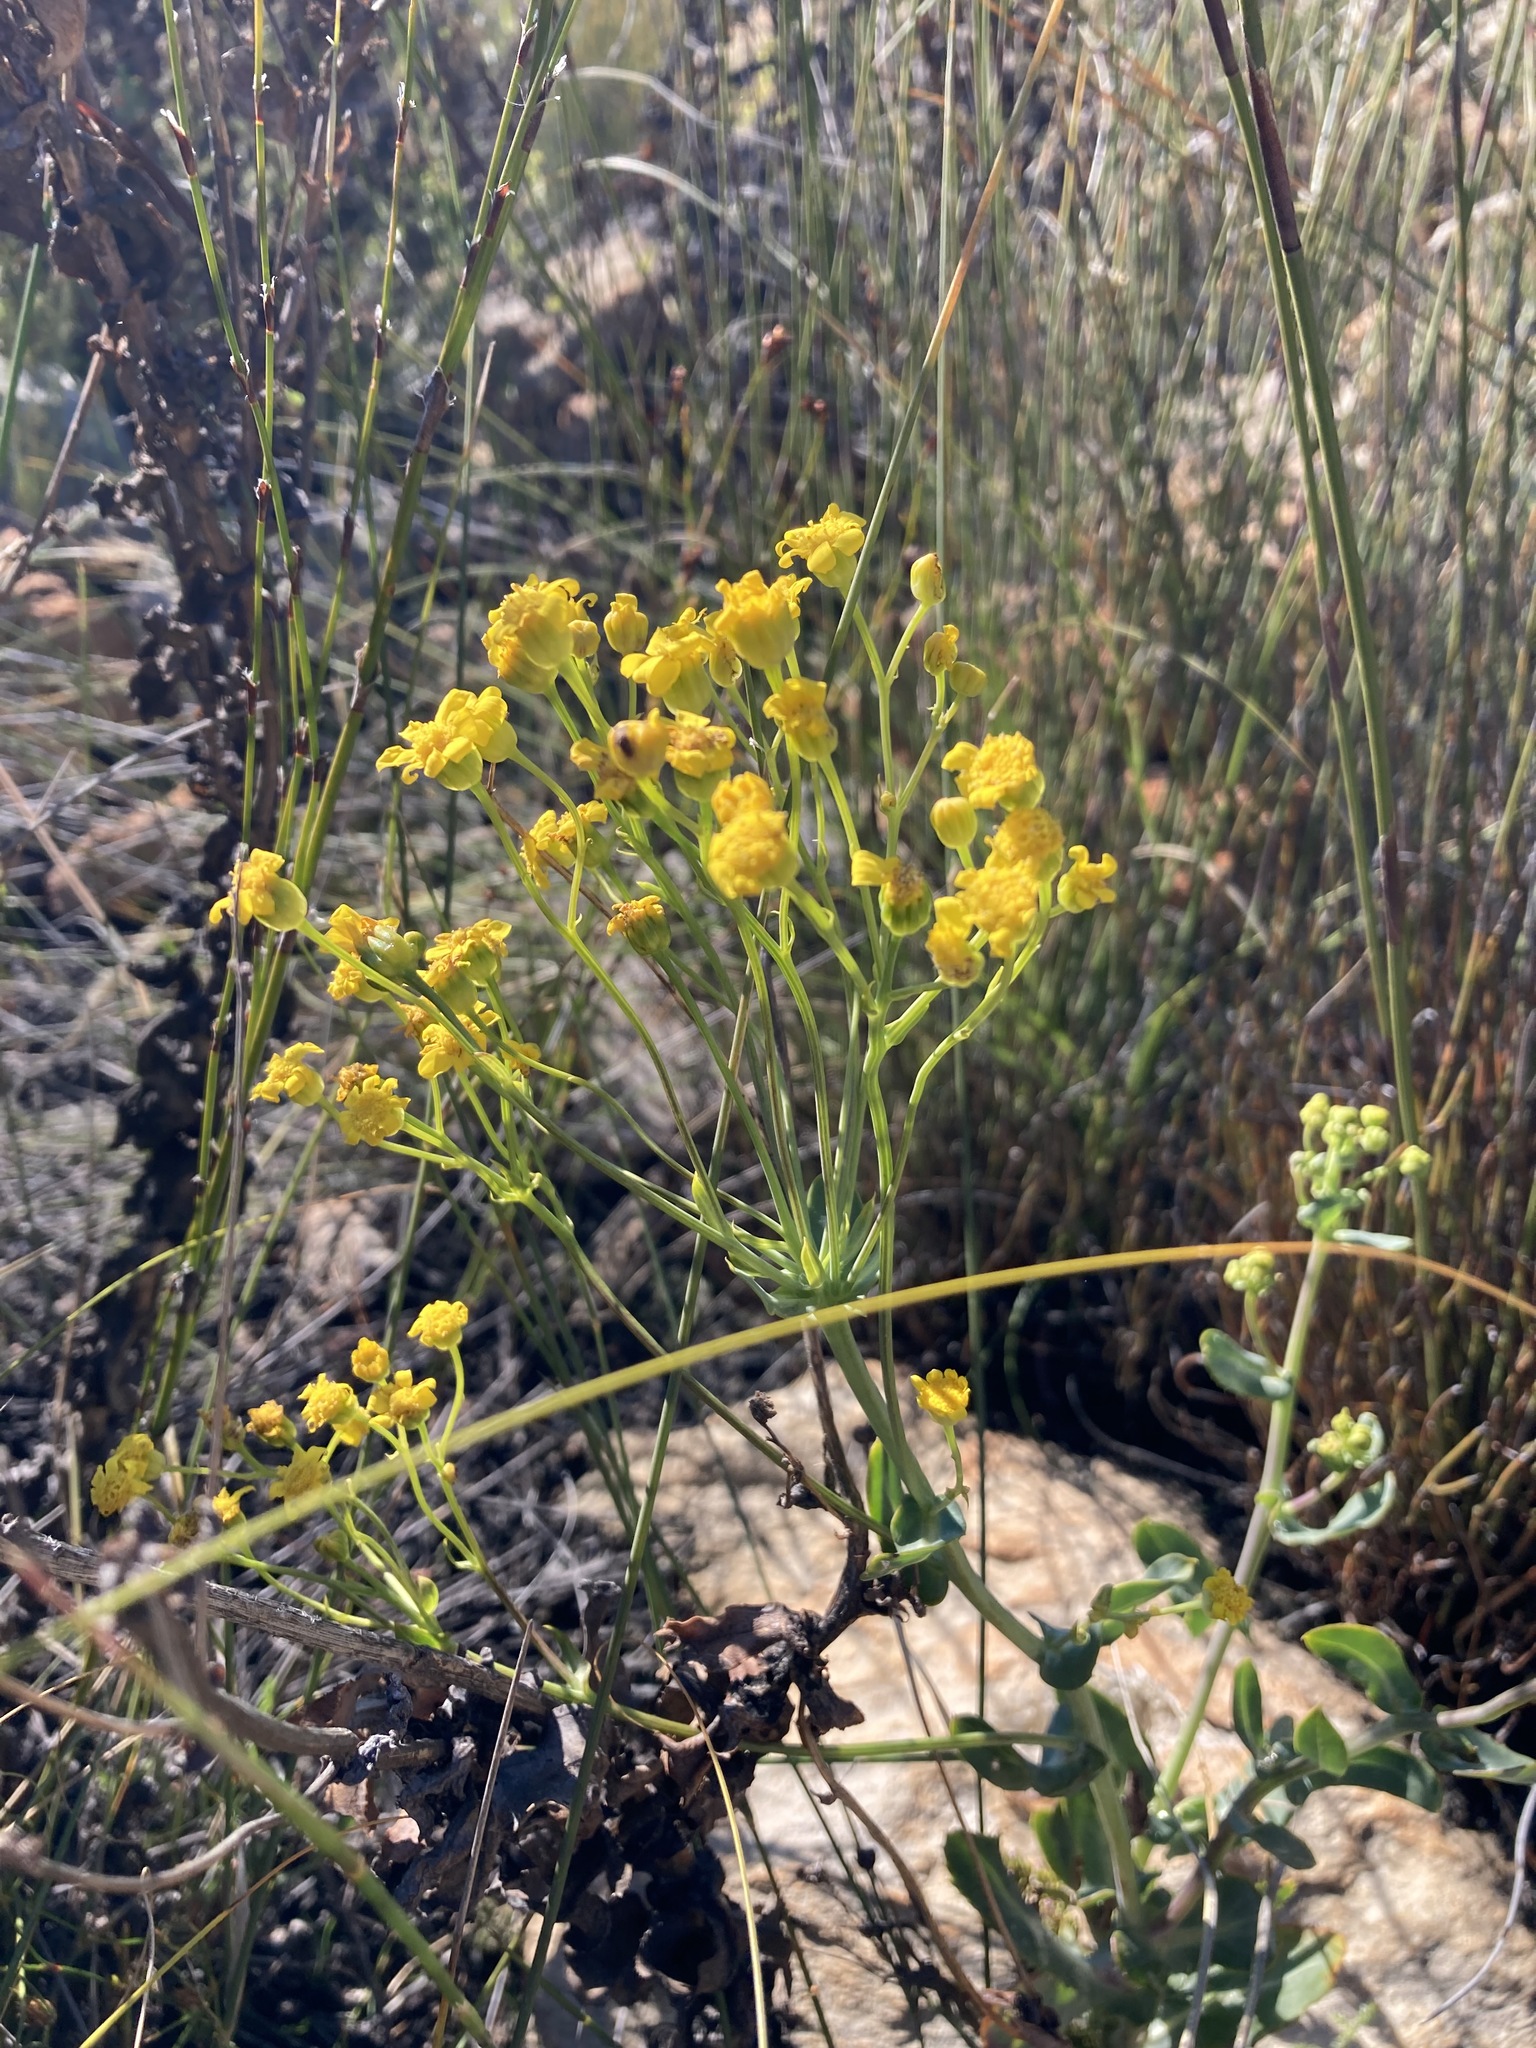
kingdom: Plantae
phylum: Tracheophyta
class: Magnoliopsida
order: Asterales
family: Asteraceae
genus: Othonna
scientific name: Othonna parviflora
